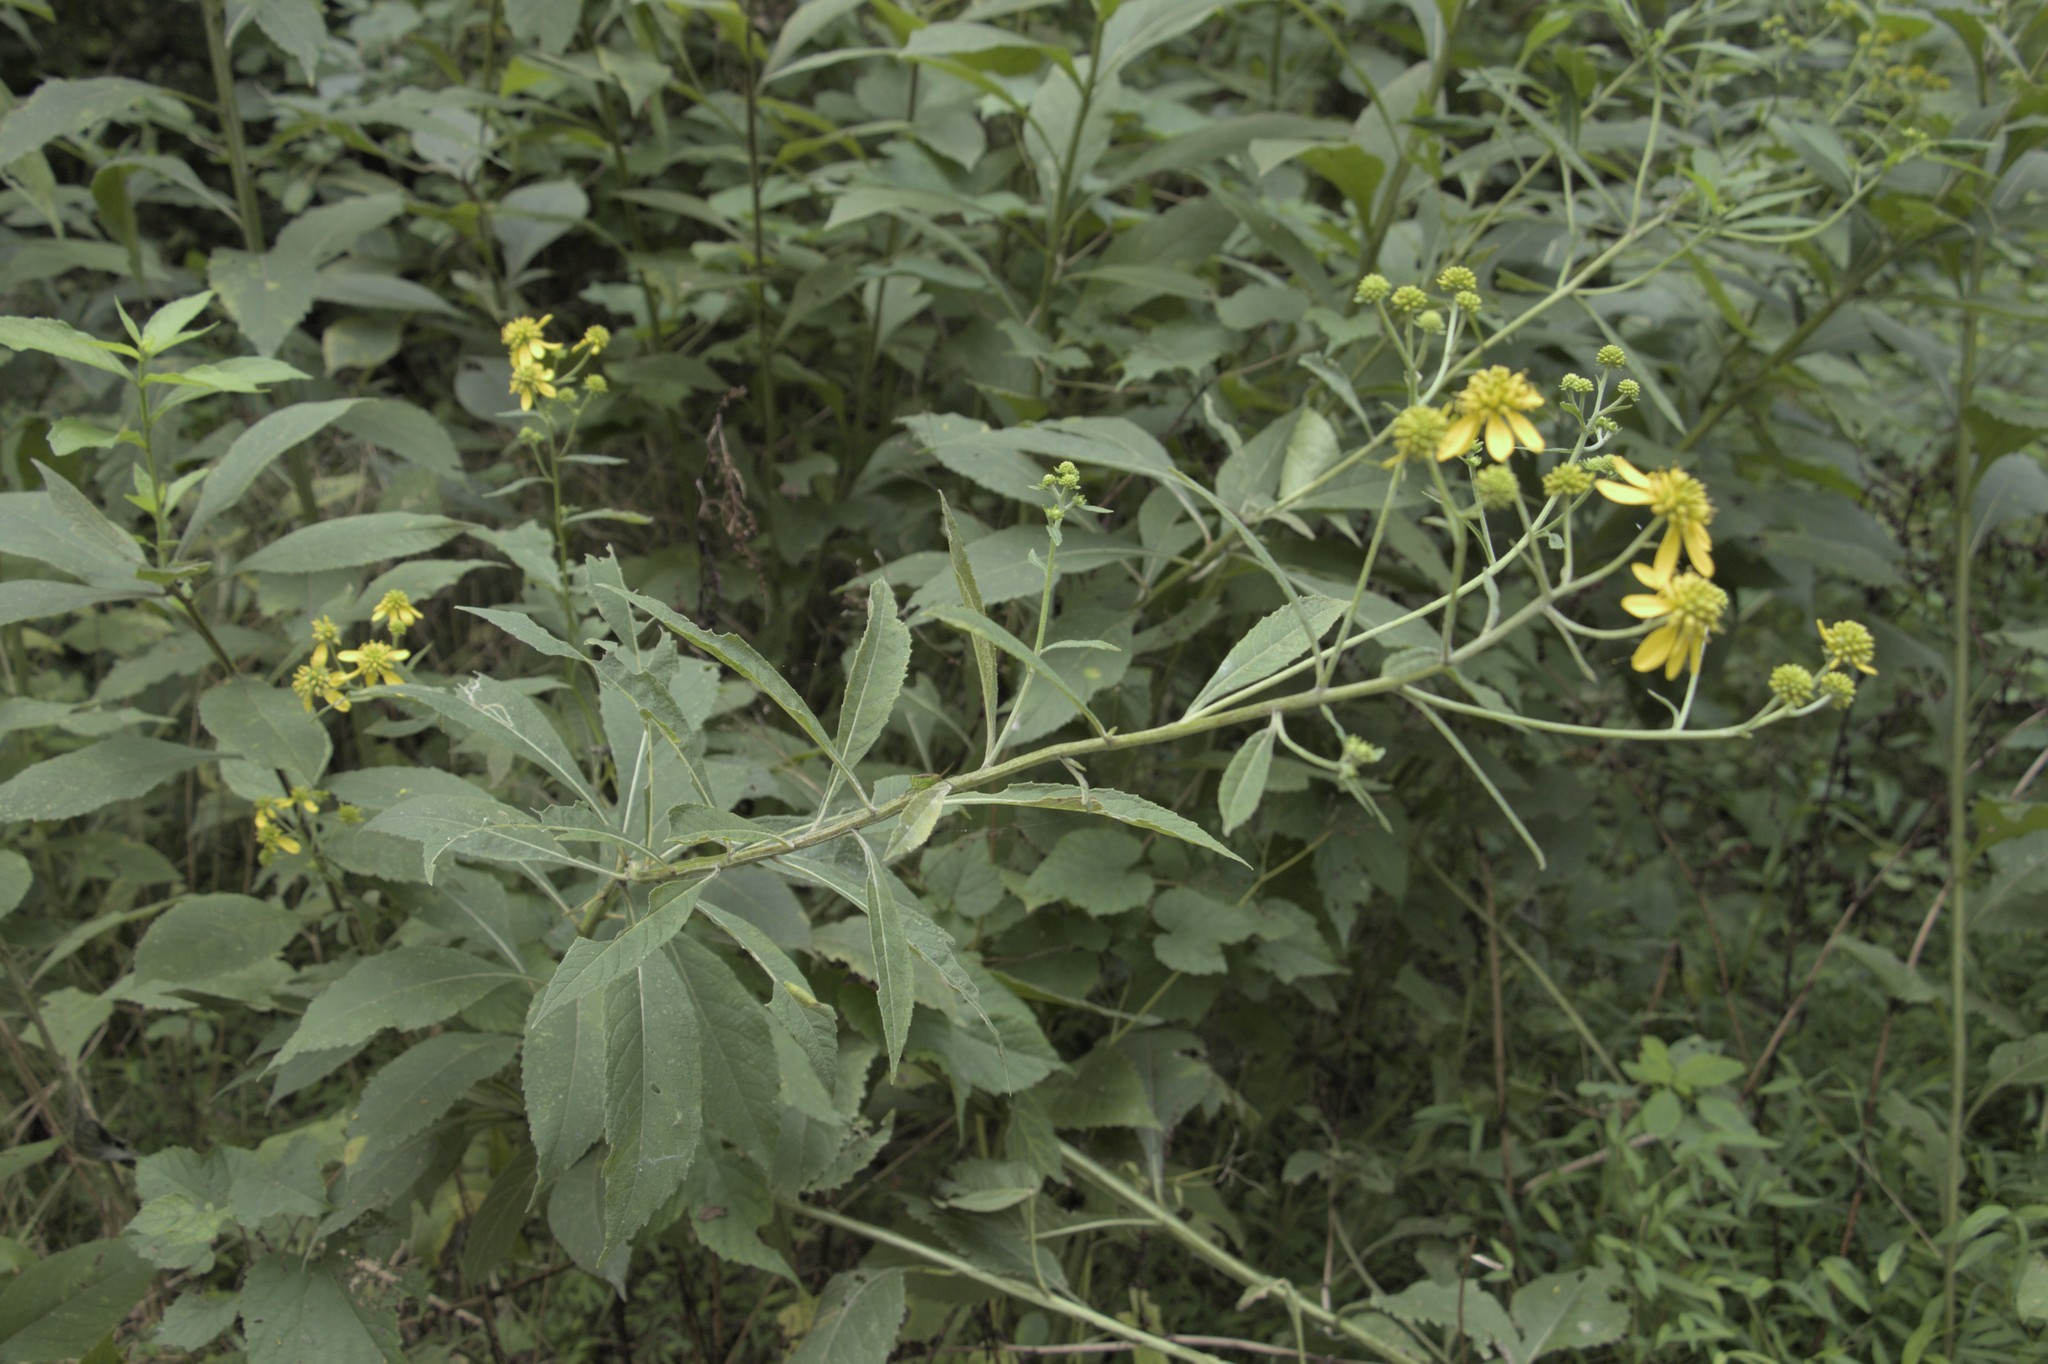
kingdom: Plantae
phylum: Tracheophyta
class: Magnoliopsida
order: Asterales
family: Asteraceae
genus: Verbesina
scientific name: Verbesina alternifolia
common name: Wingstem
